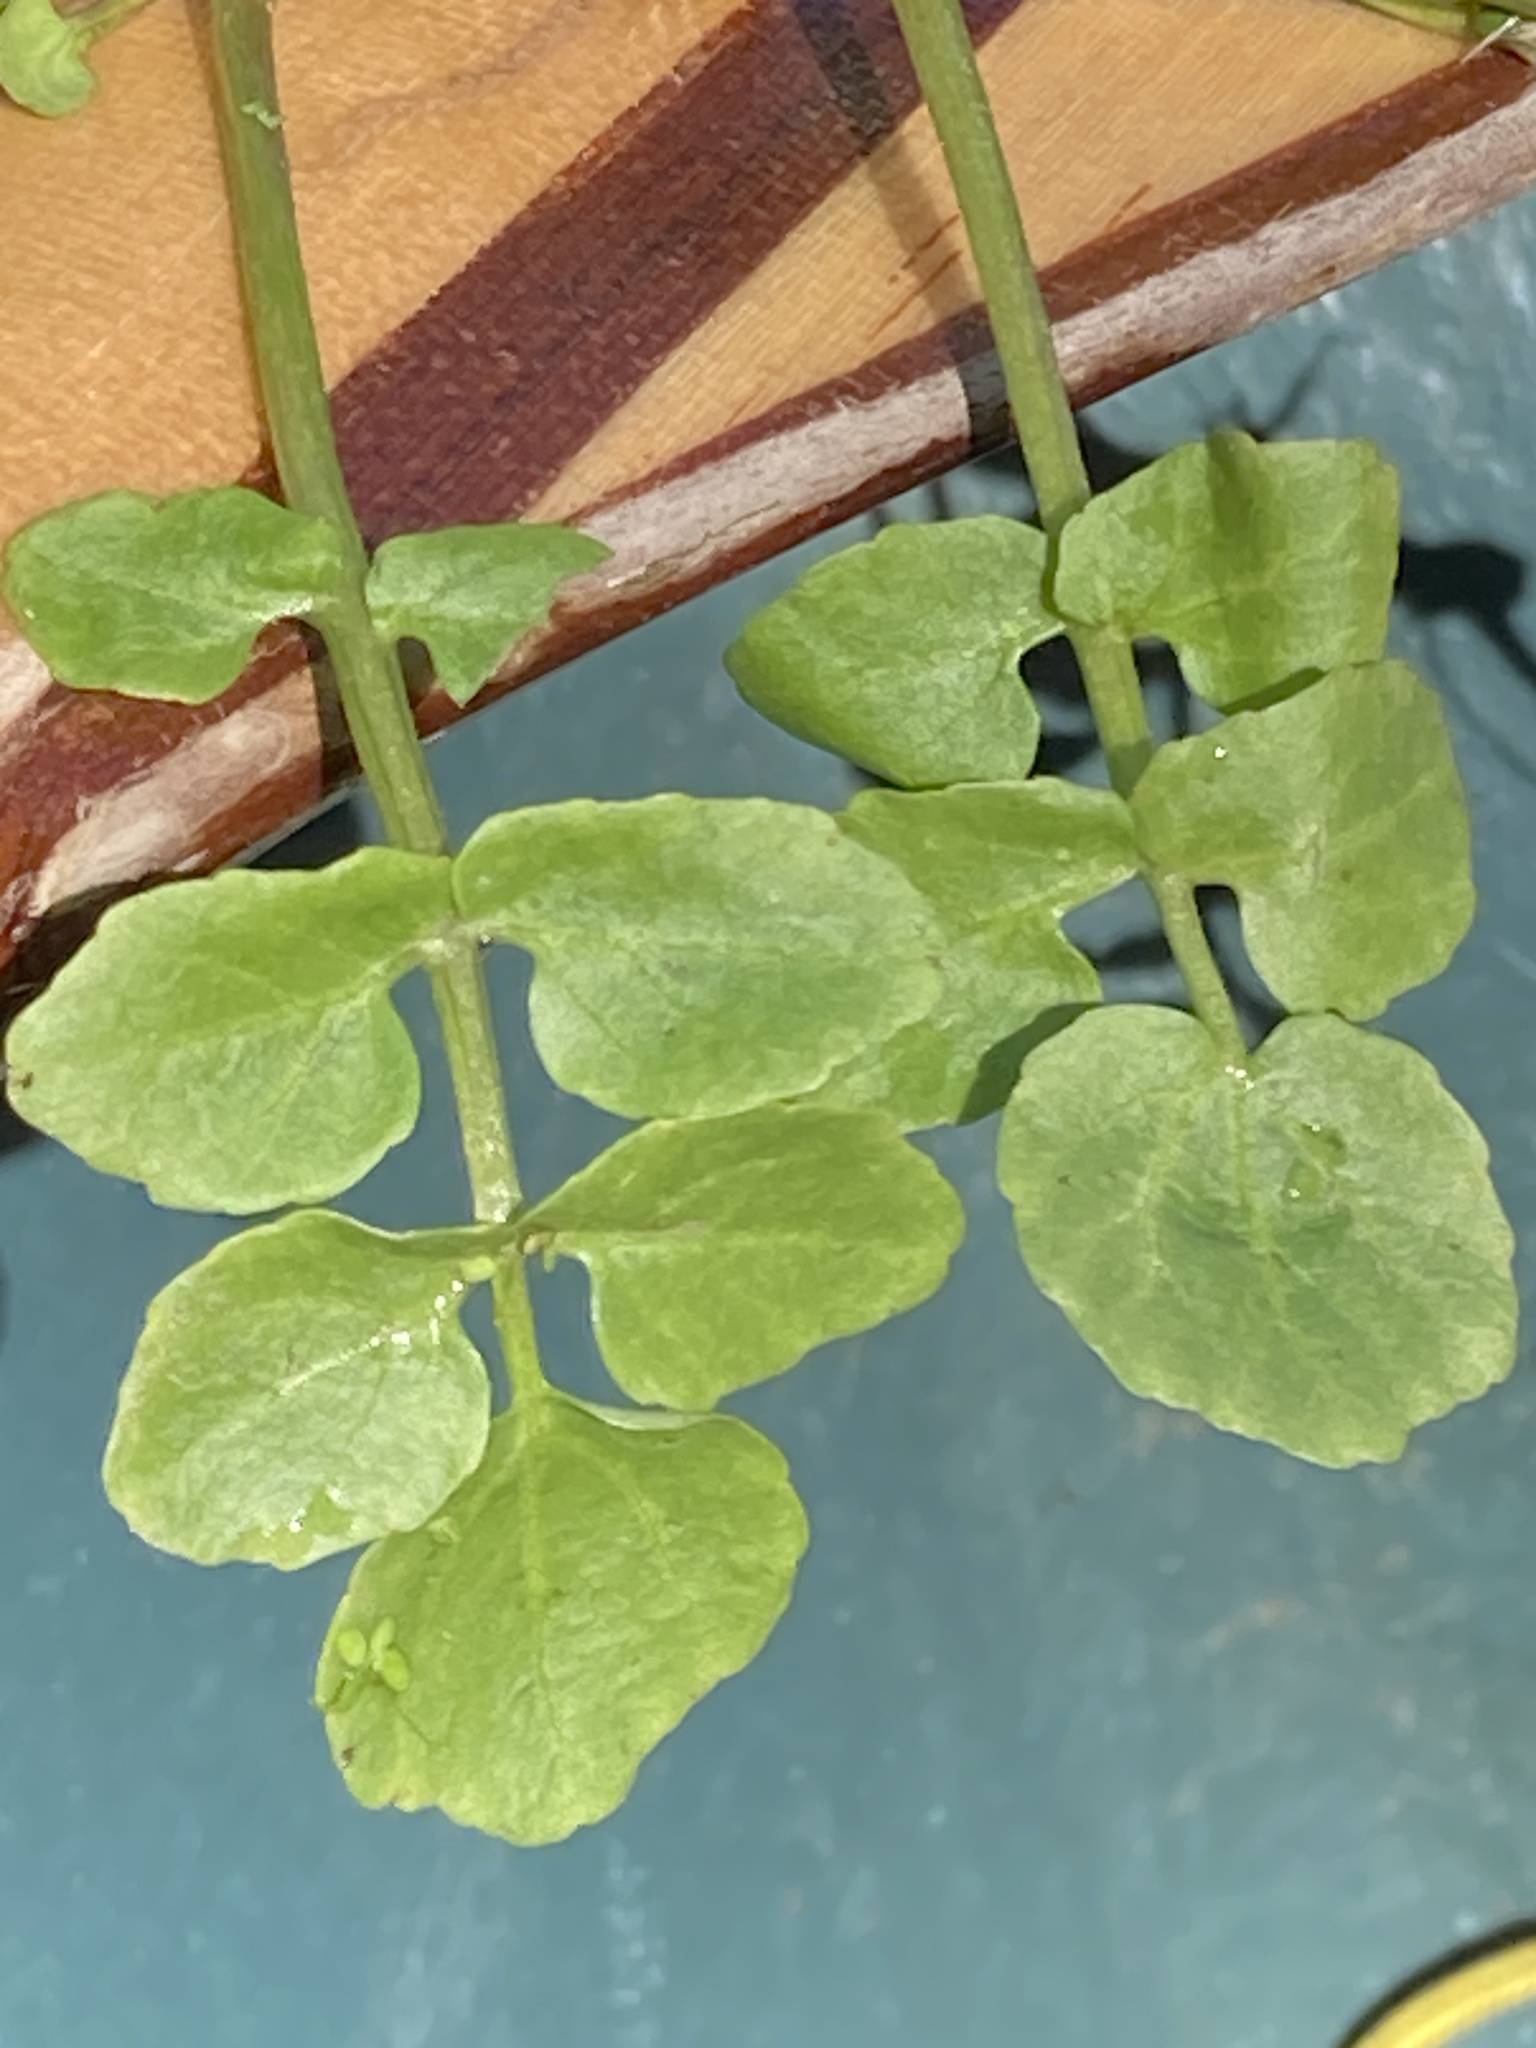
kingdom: Plantae
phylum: Tracheophyta
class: Magnoliopsida
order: Brassicales
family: Brassicaceae
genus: Nasturtium
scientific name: Nasturtium officinale
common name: Watercress
